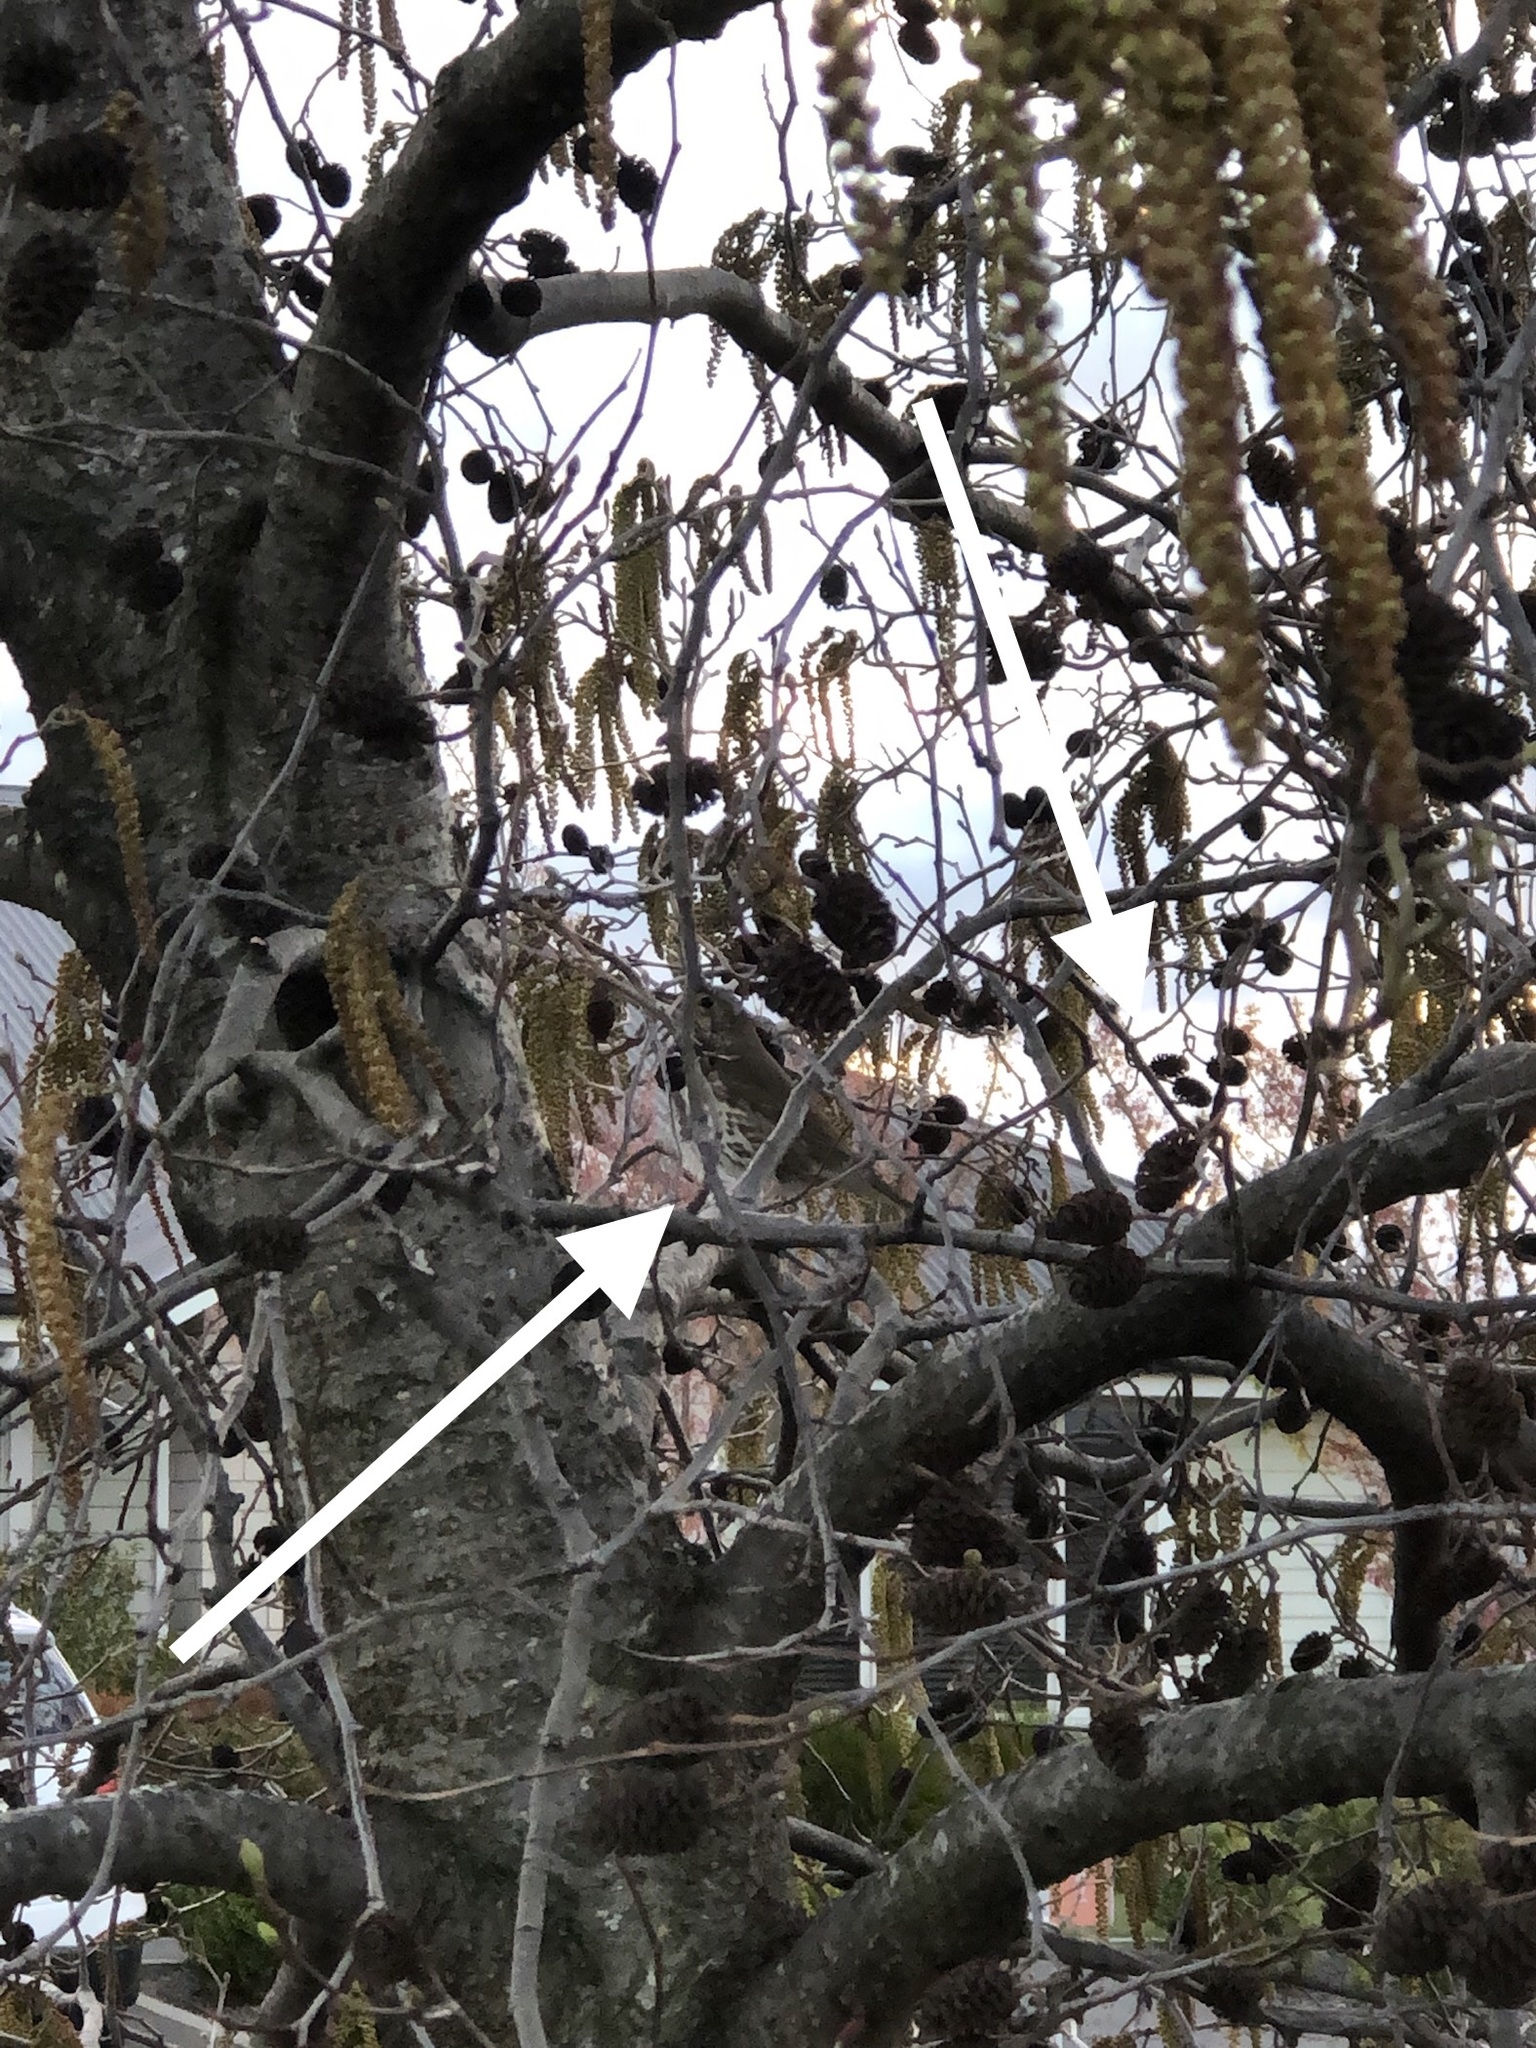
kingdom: Animalia
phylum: Chordata
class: Aves
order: Passeriformes
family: Turdidae
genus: Turdus
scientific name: Turdus philomelos
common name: Song thrush
